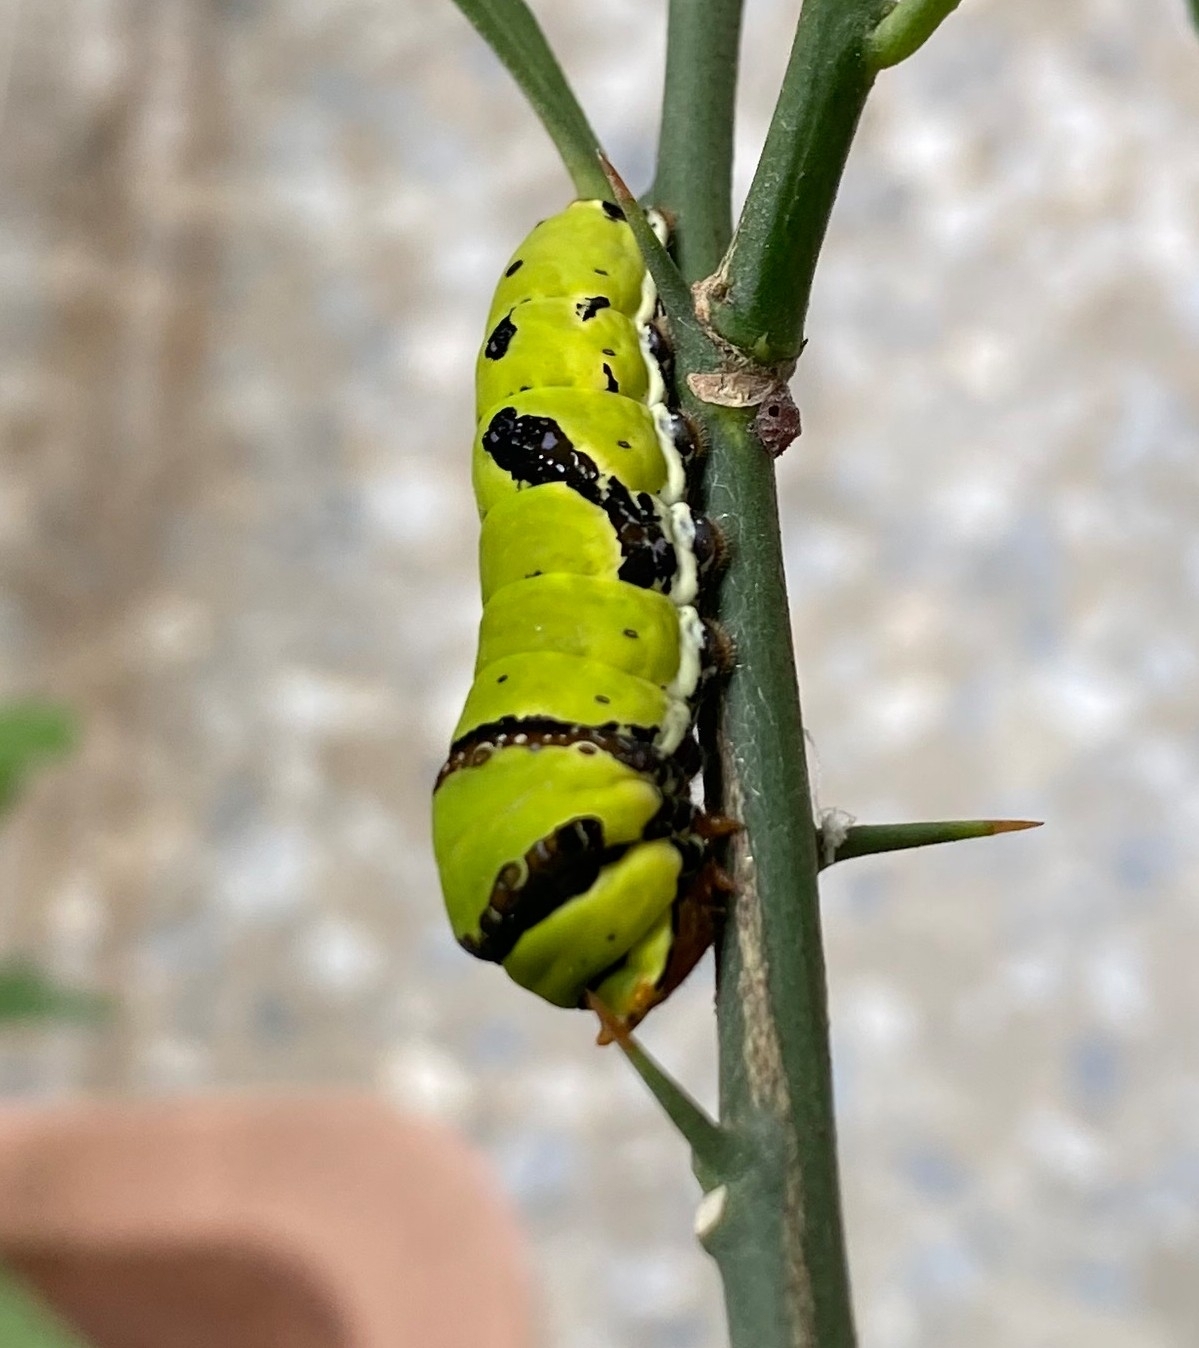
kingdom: Animalia
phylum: Arthropoda
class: Insecta
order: Lepidoptera
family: Papilionidae
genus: Papilio
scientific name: Papilio demoleus
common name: Lime butterfly
